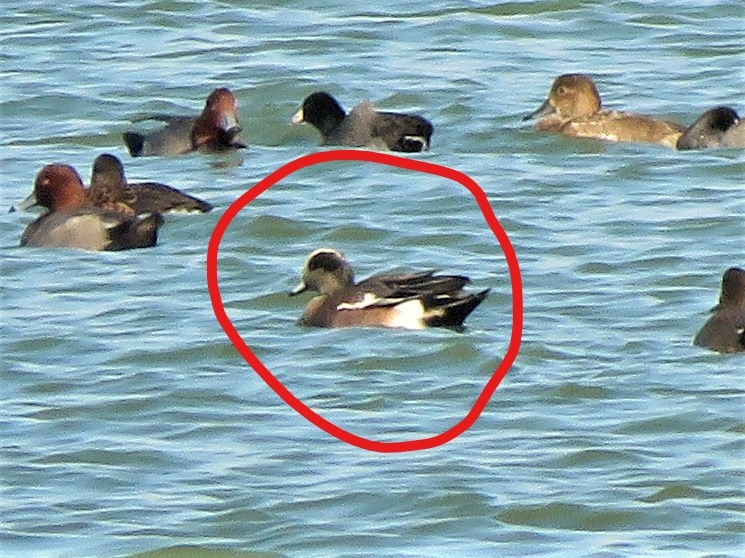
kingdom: Animalia
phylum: Chordata
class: Aves
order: Anseriformes
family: Anatidae
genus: Mareca
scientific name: Mareca americana
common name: American wigeon
